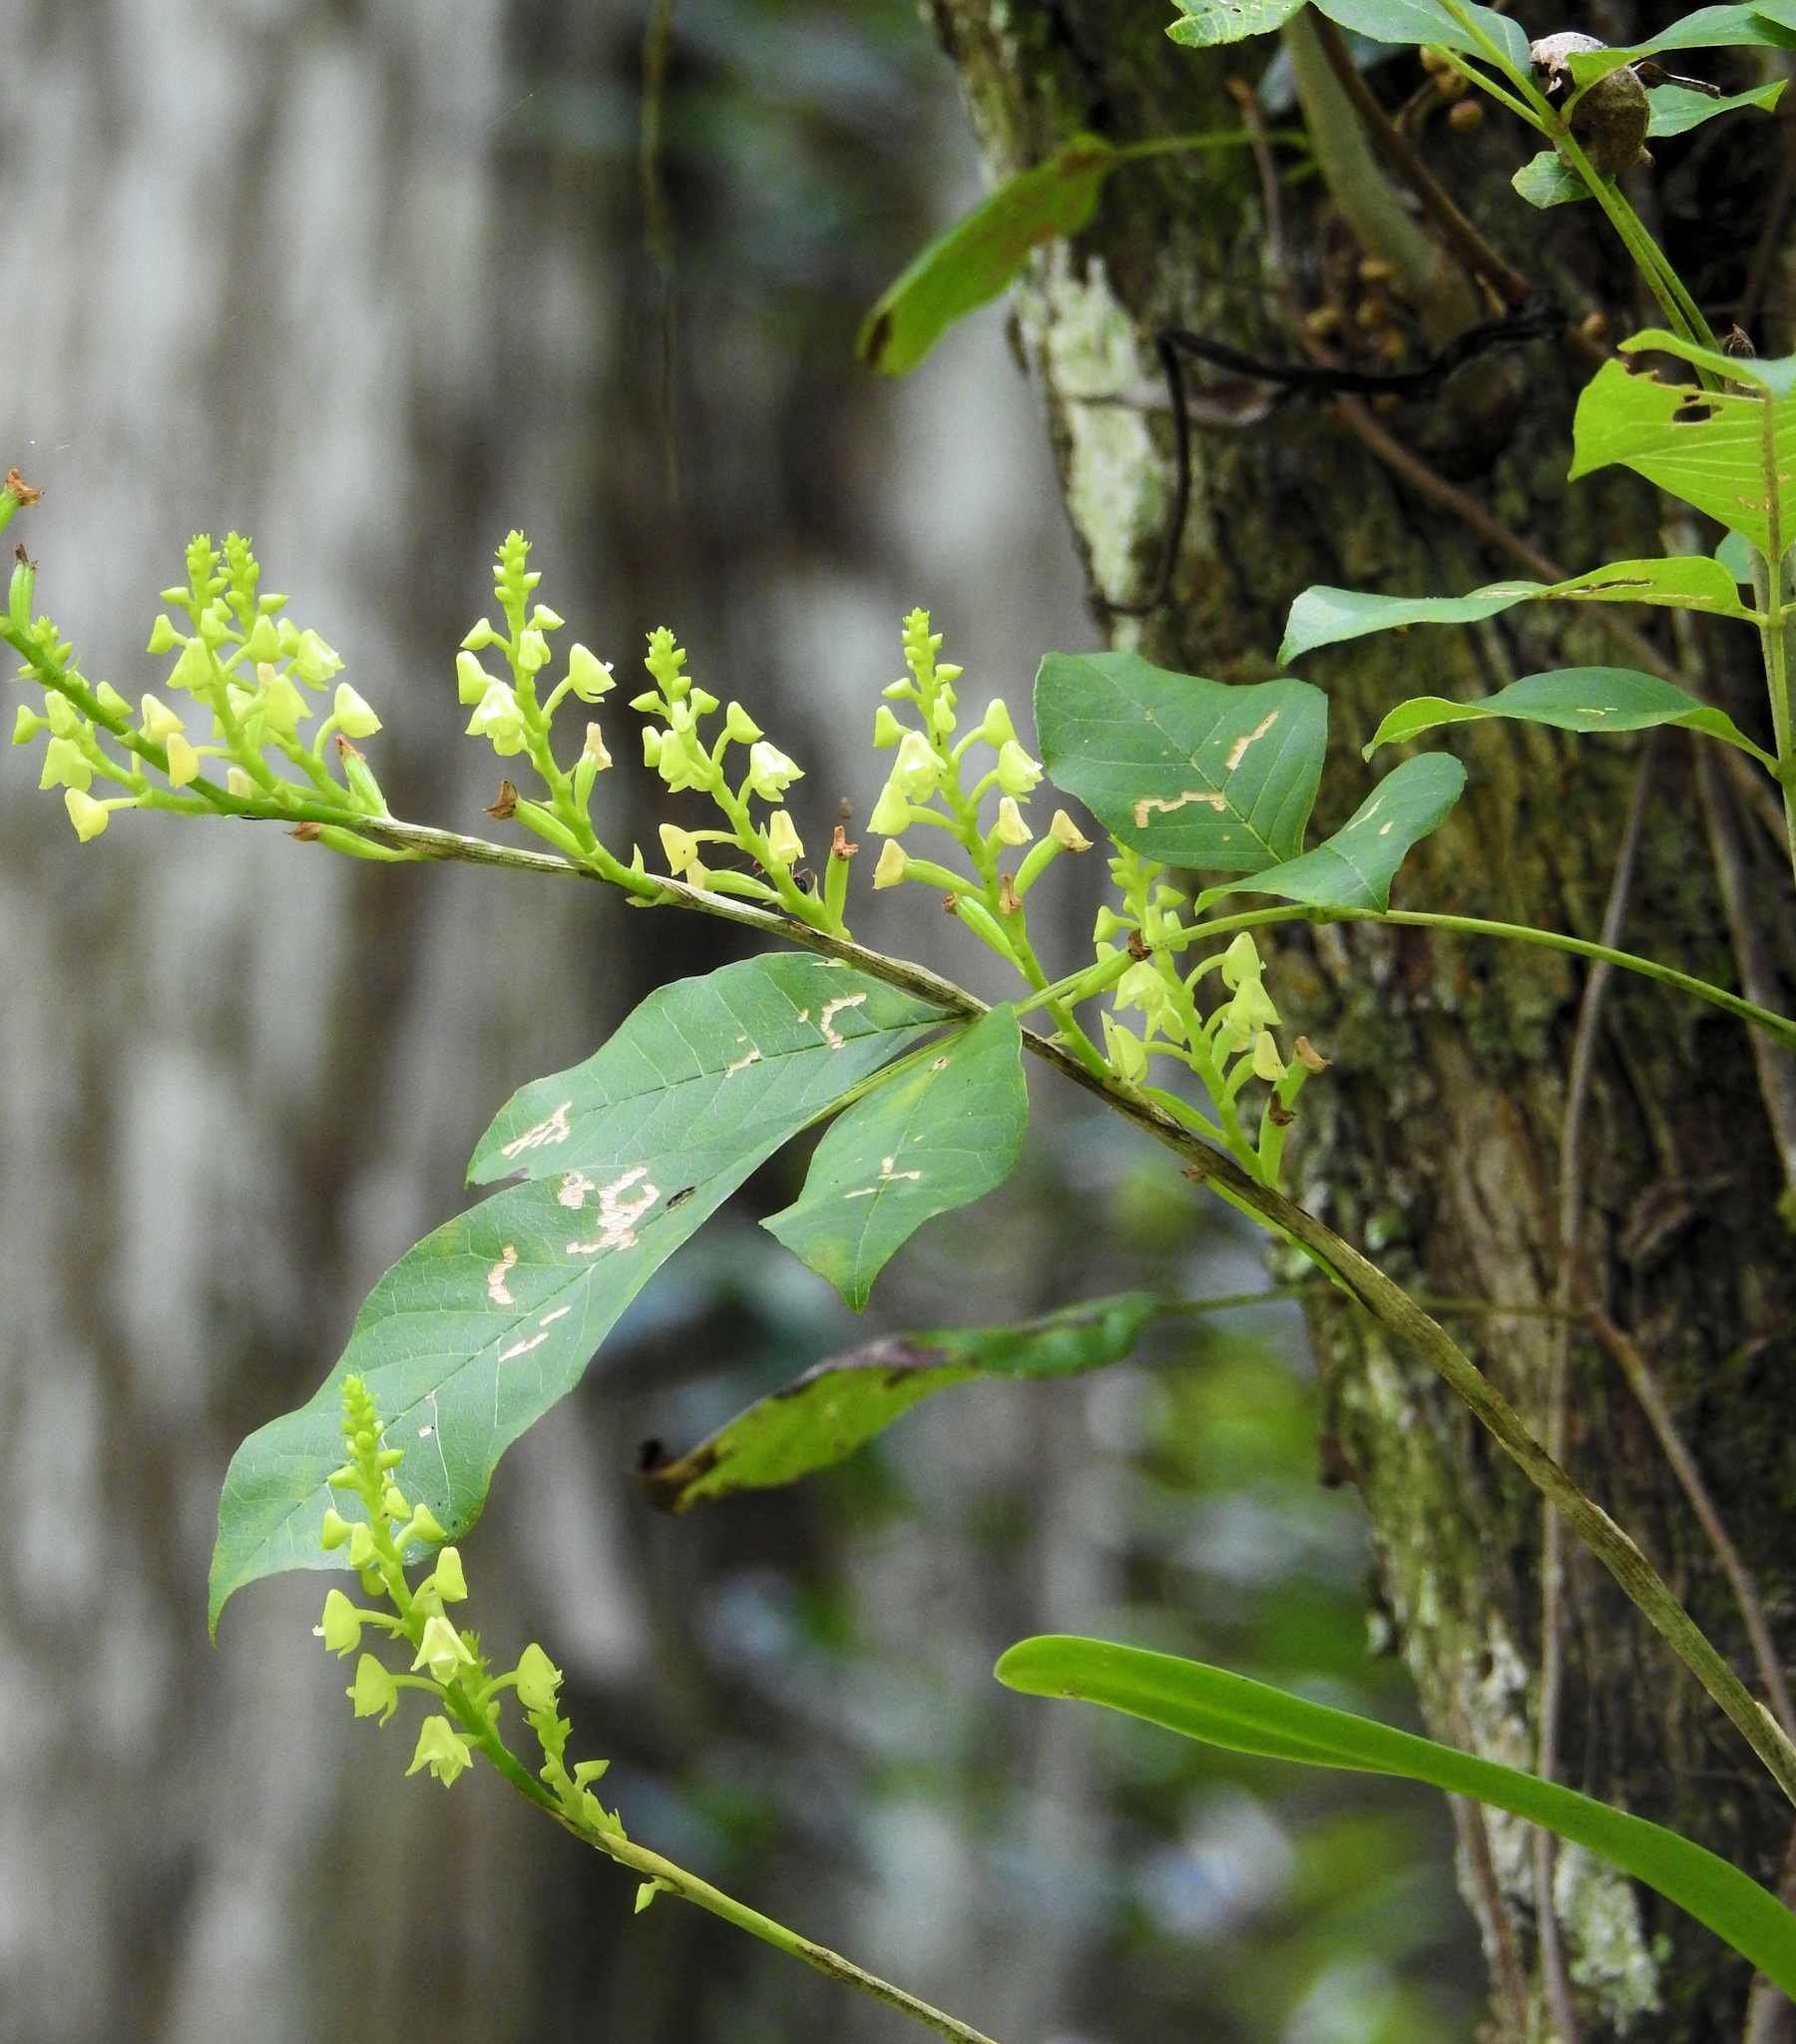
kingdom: Plantae
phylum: Tracheophyta
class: Liliopsida
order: Asparagales
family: Orchidaceae
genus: Polystachya
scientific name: Polystachya concreta
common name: Greater yellowspike orchid
